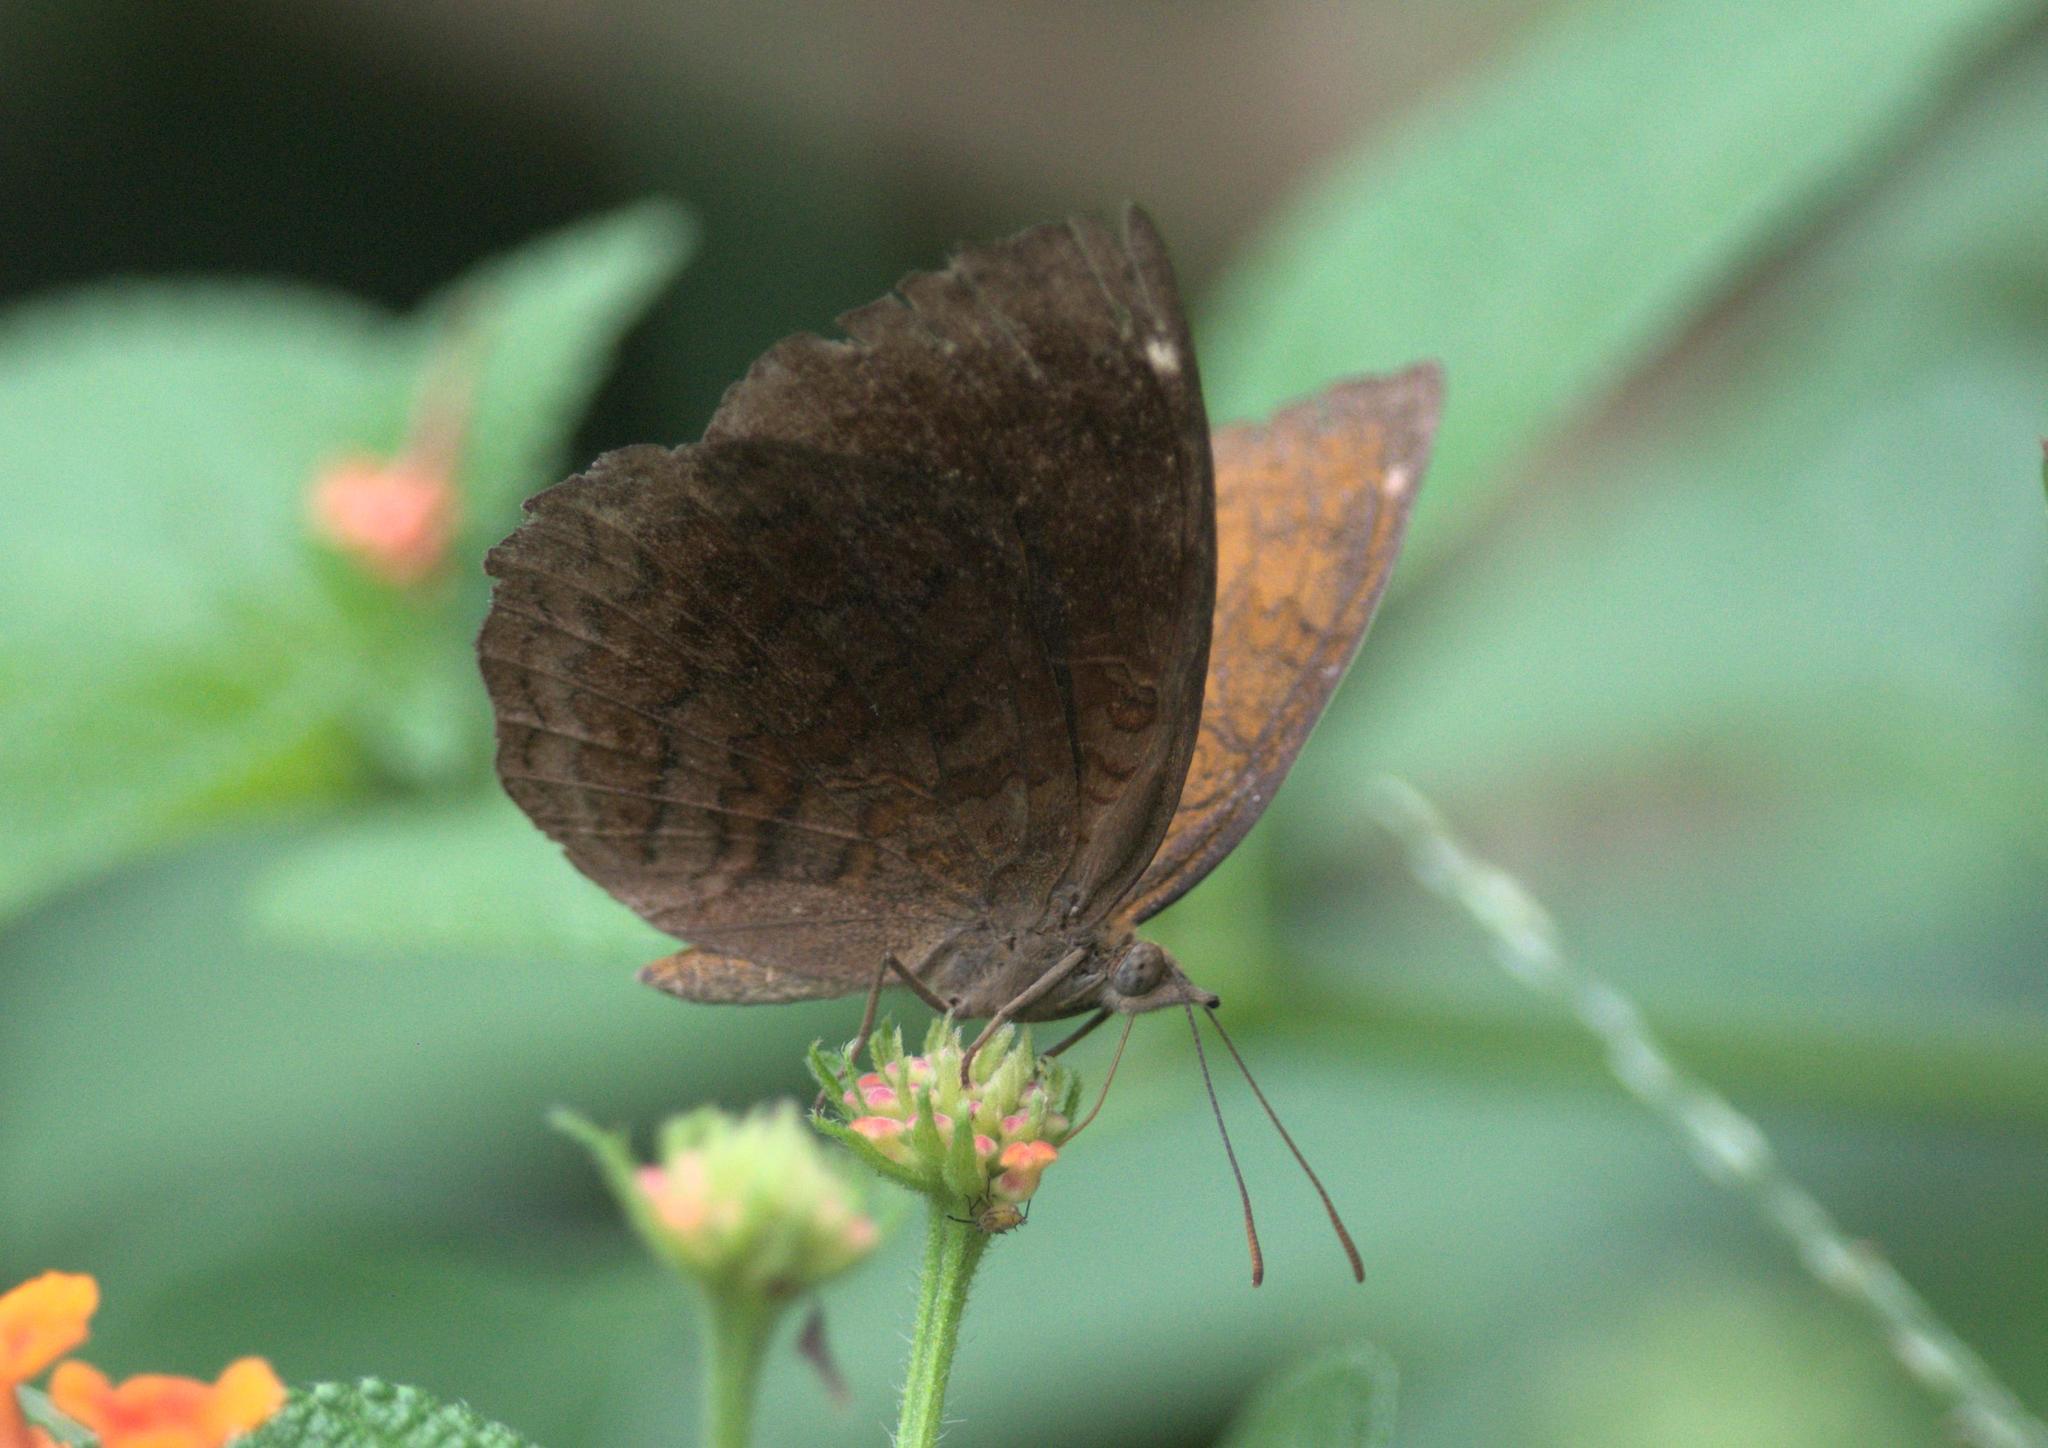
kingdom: Animalia
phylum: Arthropoda
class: Insecta
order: Lepidoptera
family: Nymphalidae
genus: Ariadne
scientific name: Ariadne merione
